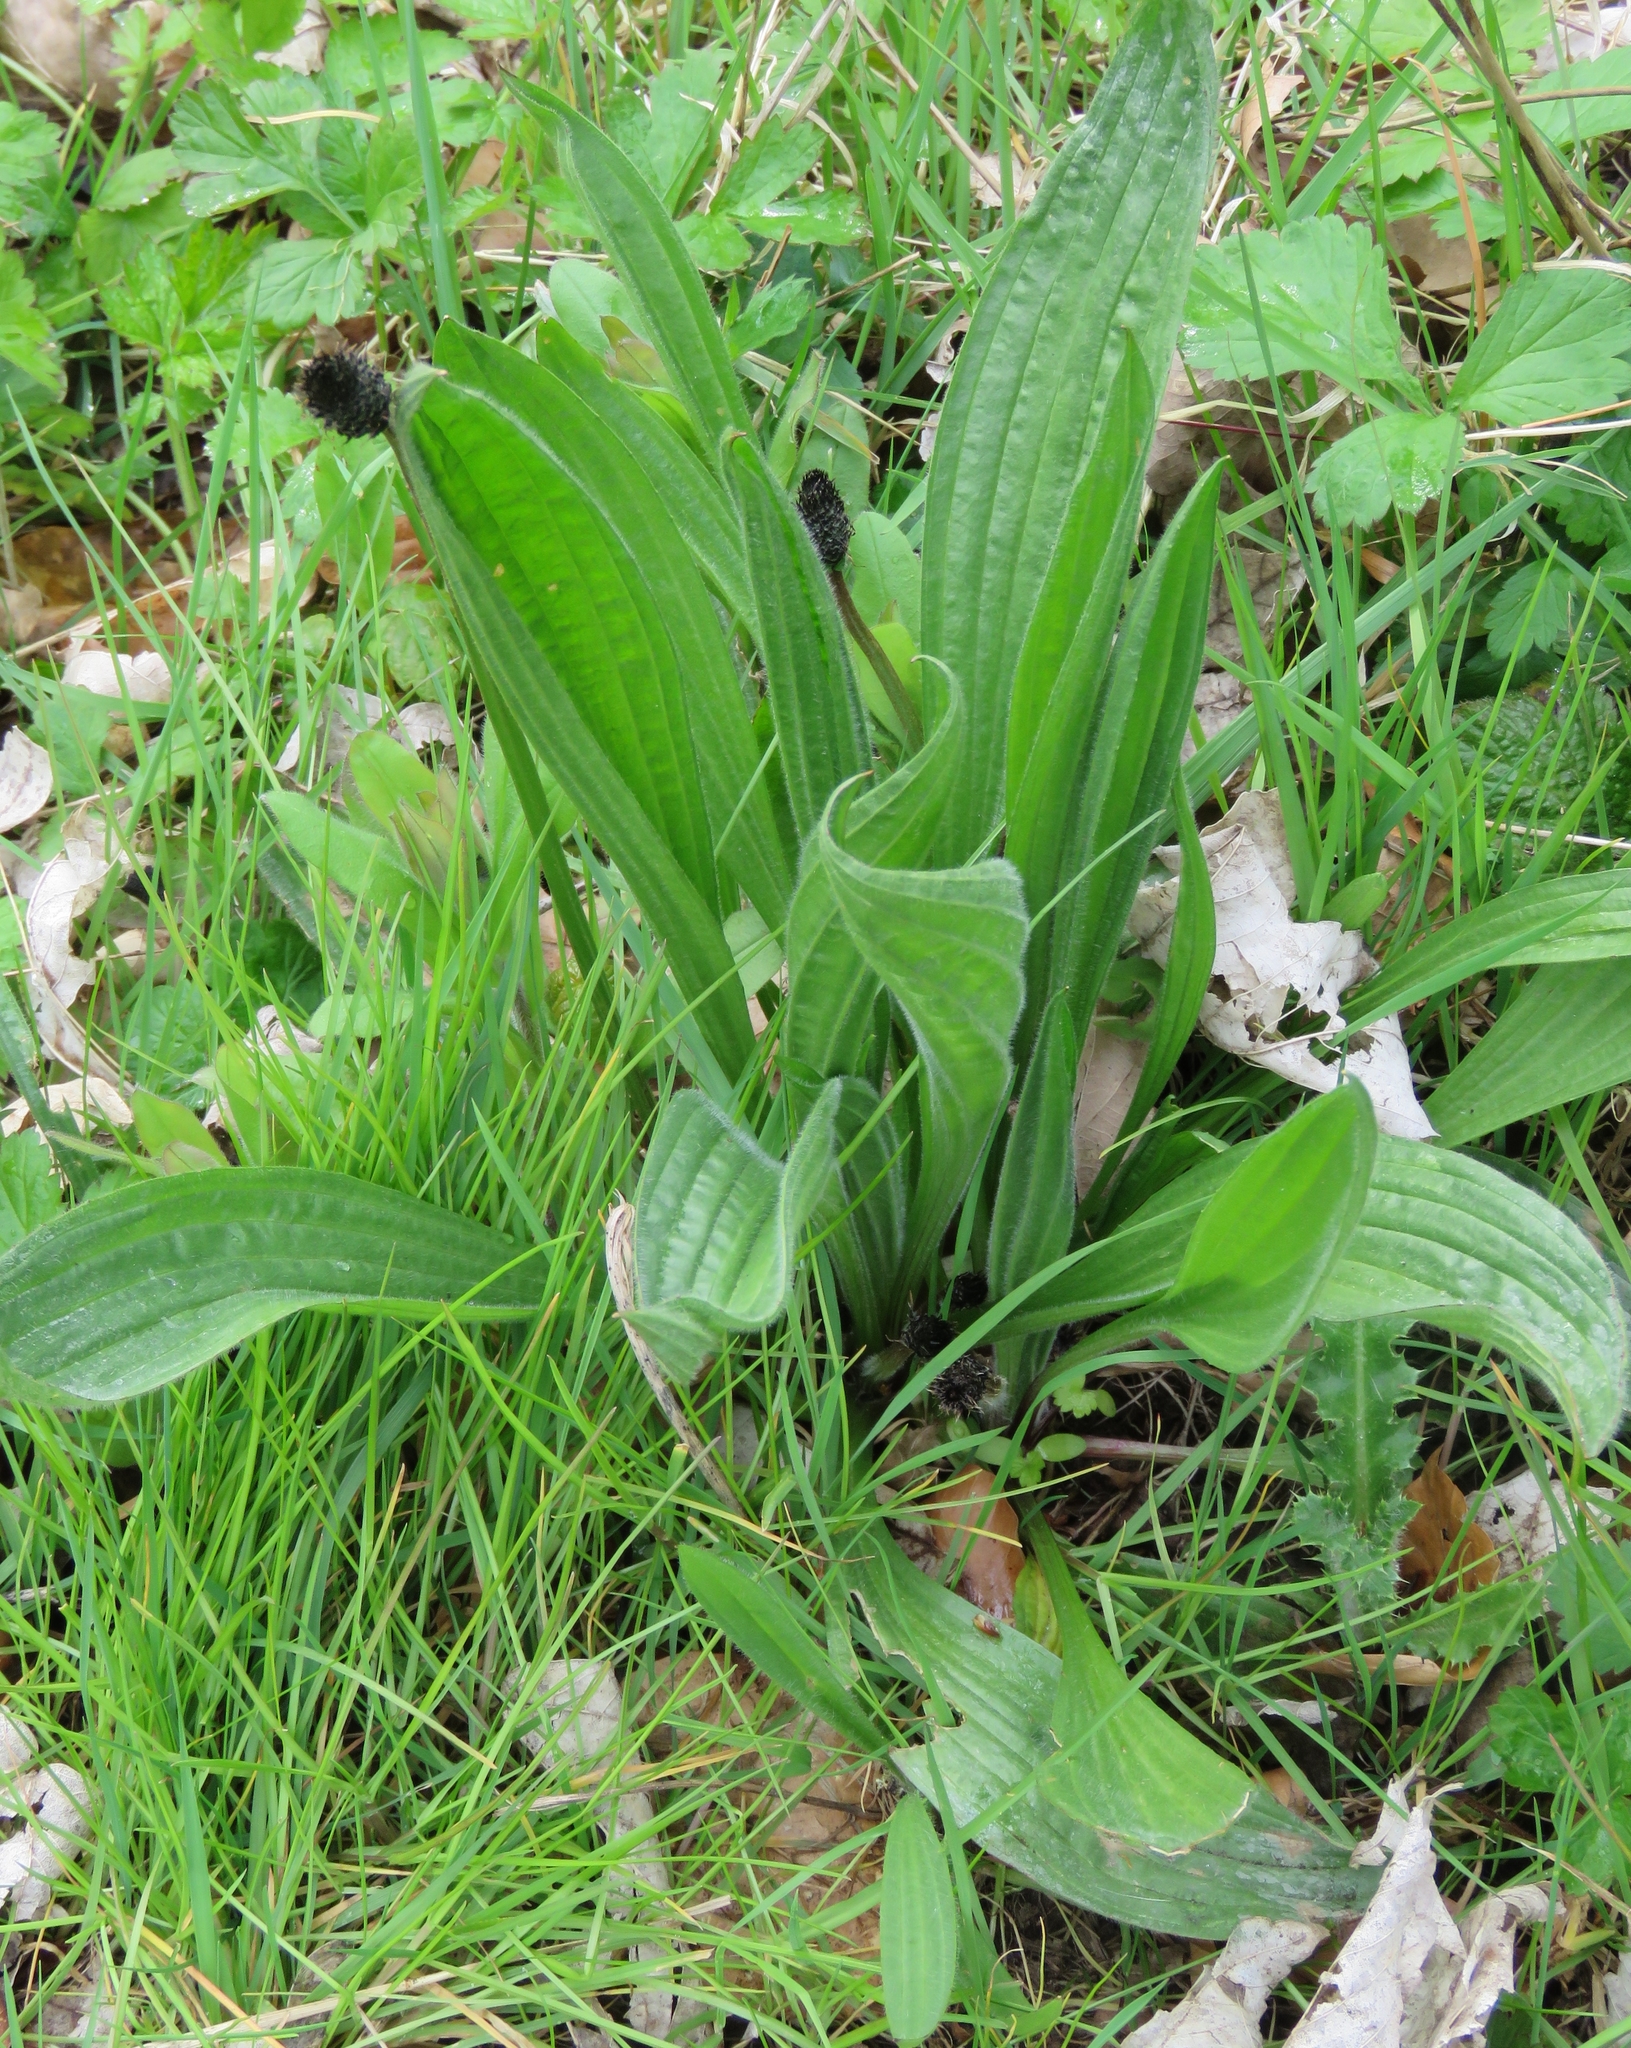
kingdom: Plantae
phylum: Tracheophyta
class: Magnoliopsida
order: Lamiales
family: Plantaginaceae
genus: Plantago
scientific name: Plantago lanceolata
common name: Ribwort plantain
